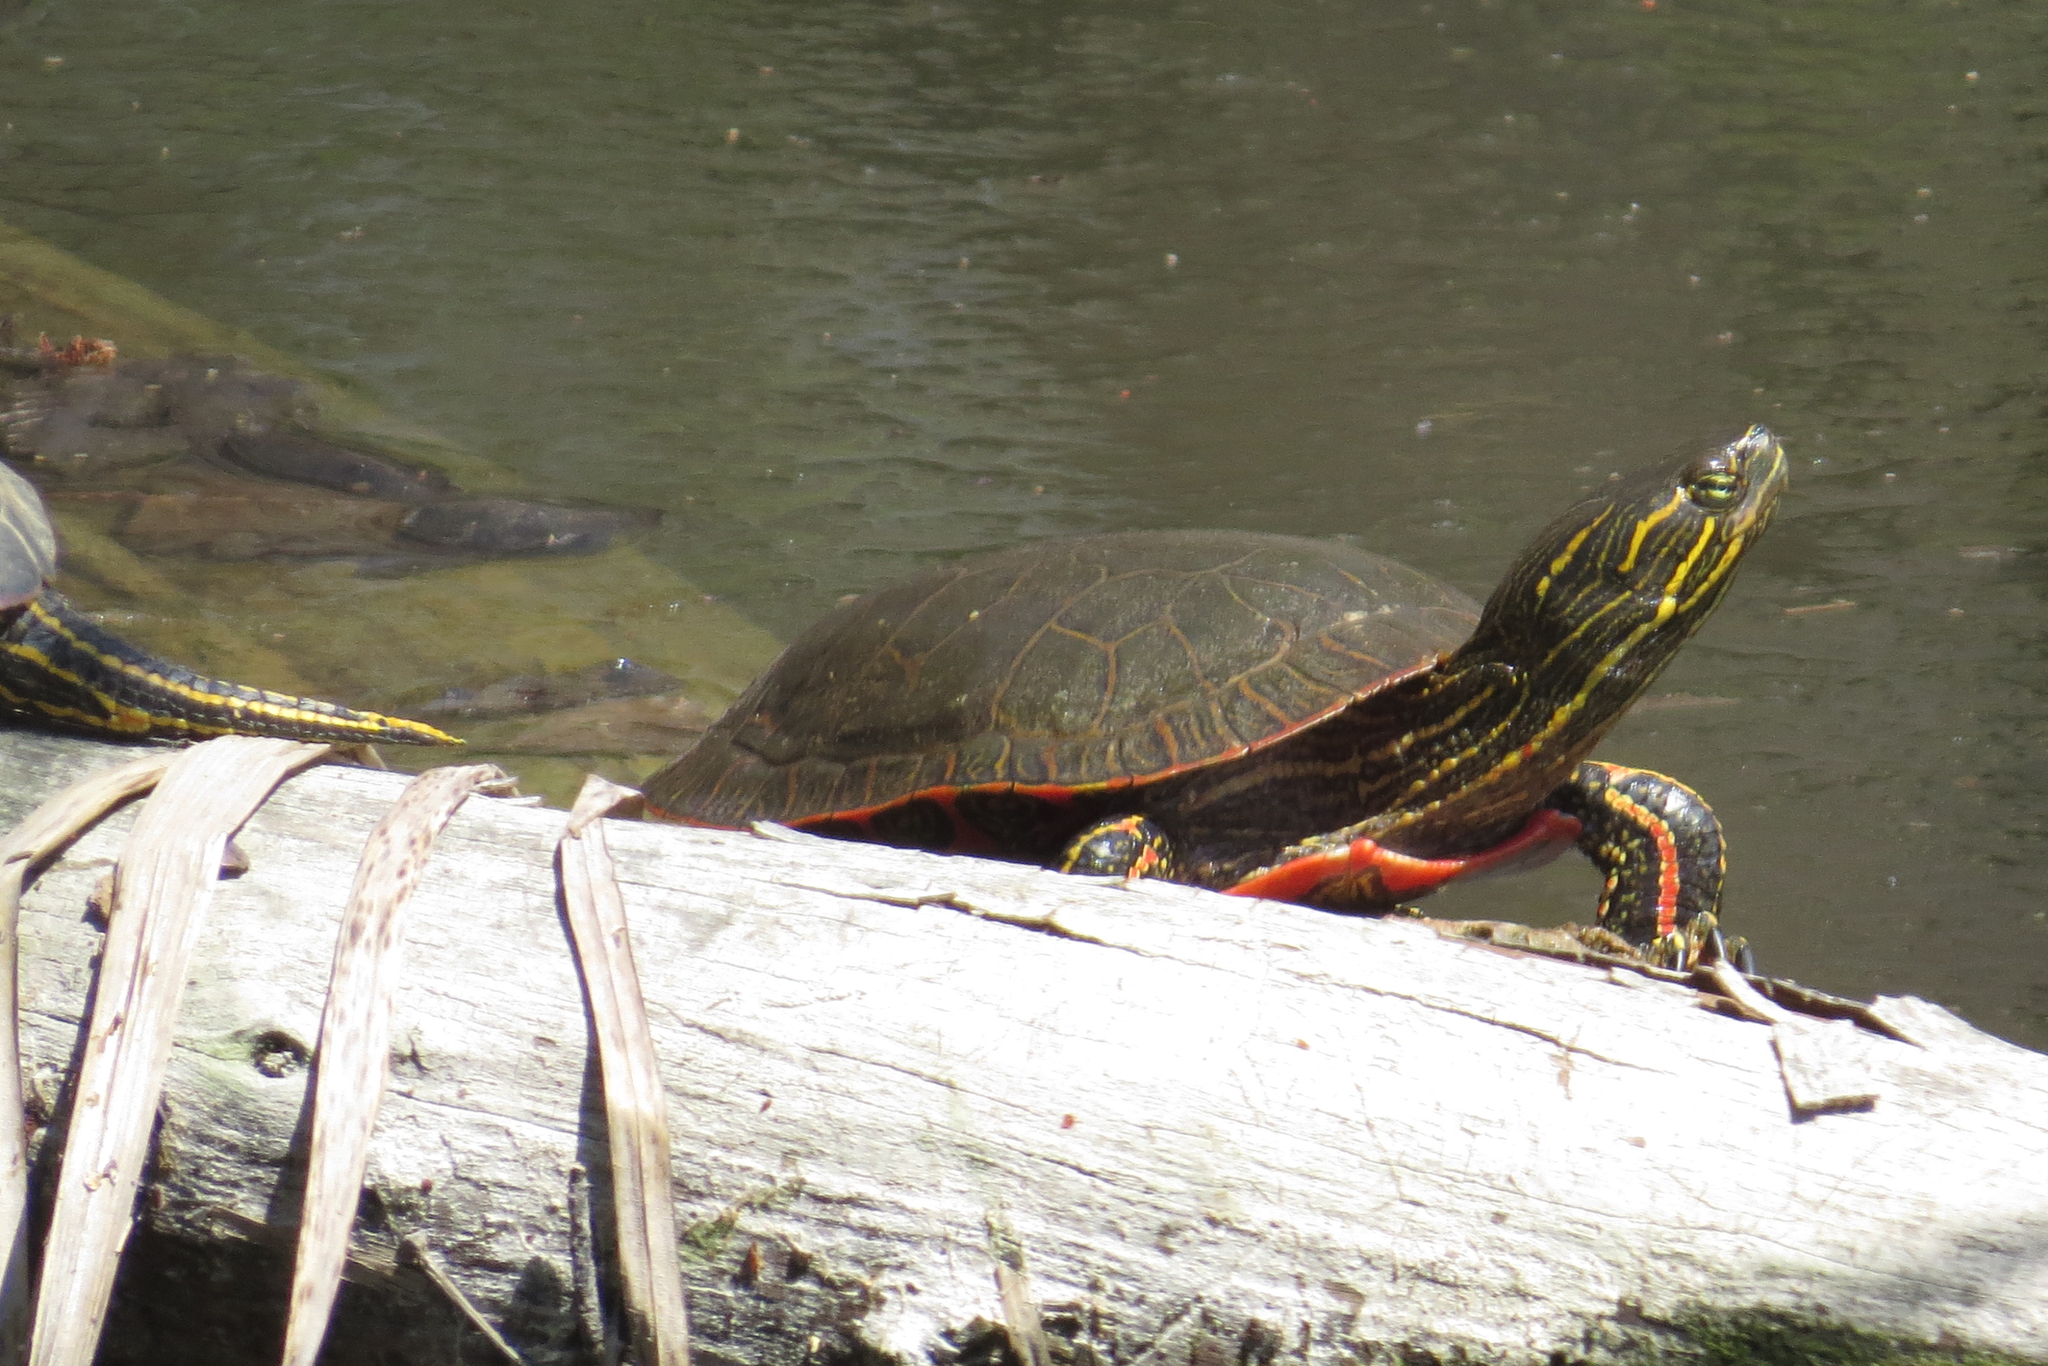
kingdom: Animalia
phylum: Chordata
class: Testudines
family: Emydidae
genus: Chrysemys
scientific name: Chrysemys picta
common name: Painted turtle
